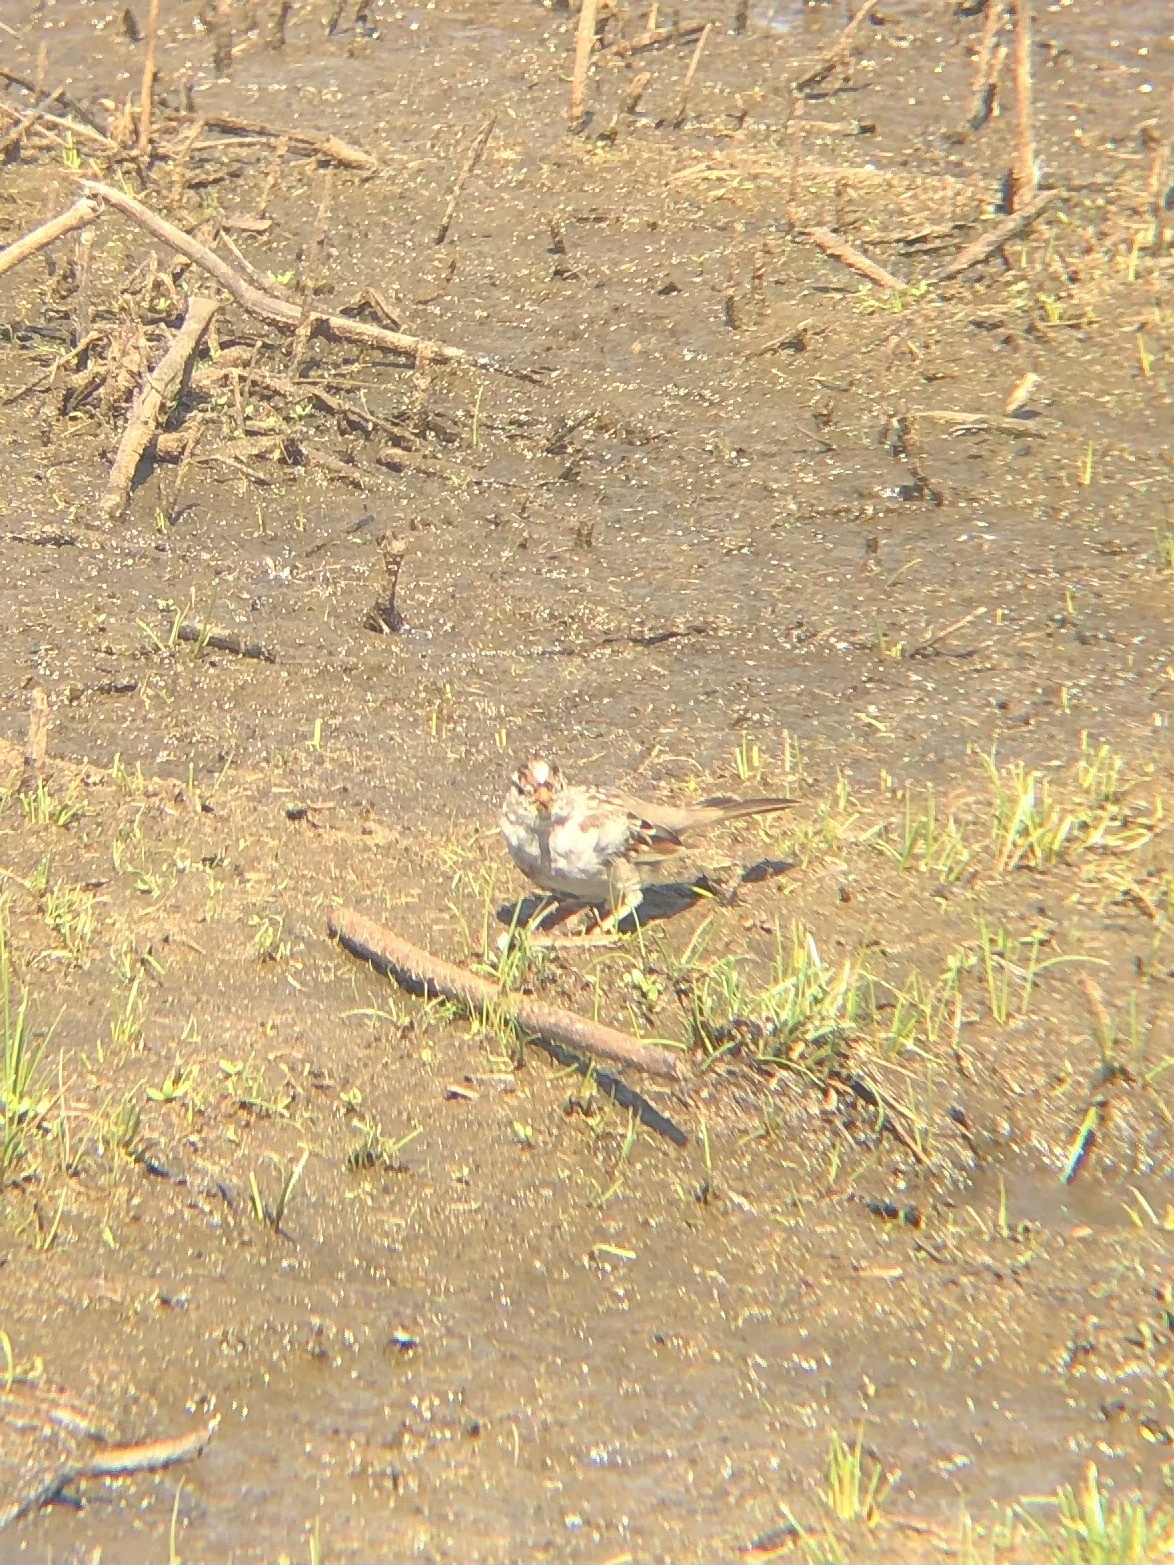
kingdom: Animalia
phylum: Chordata
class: Aves
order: Passeriformes
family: Passerellidae
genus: Zonotrichia
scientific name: Zonotrichia leucophrys
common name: White-crowned sparrow
